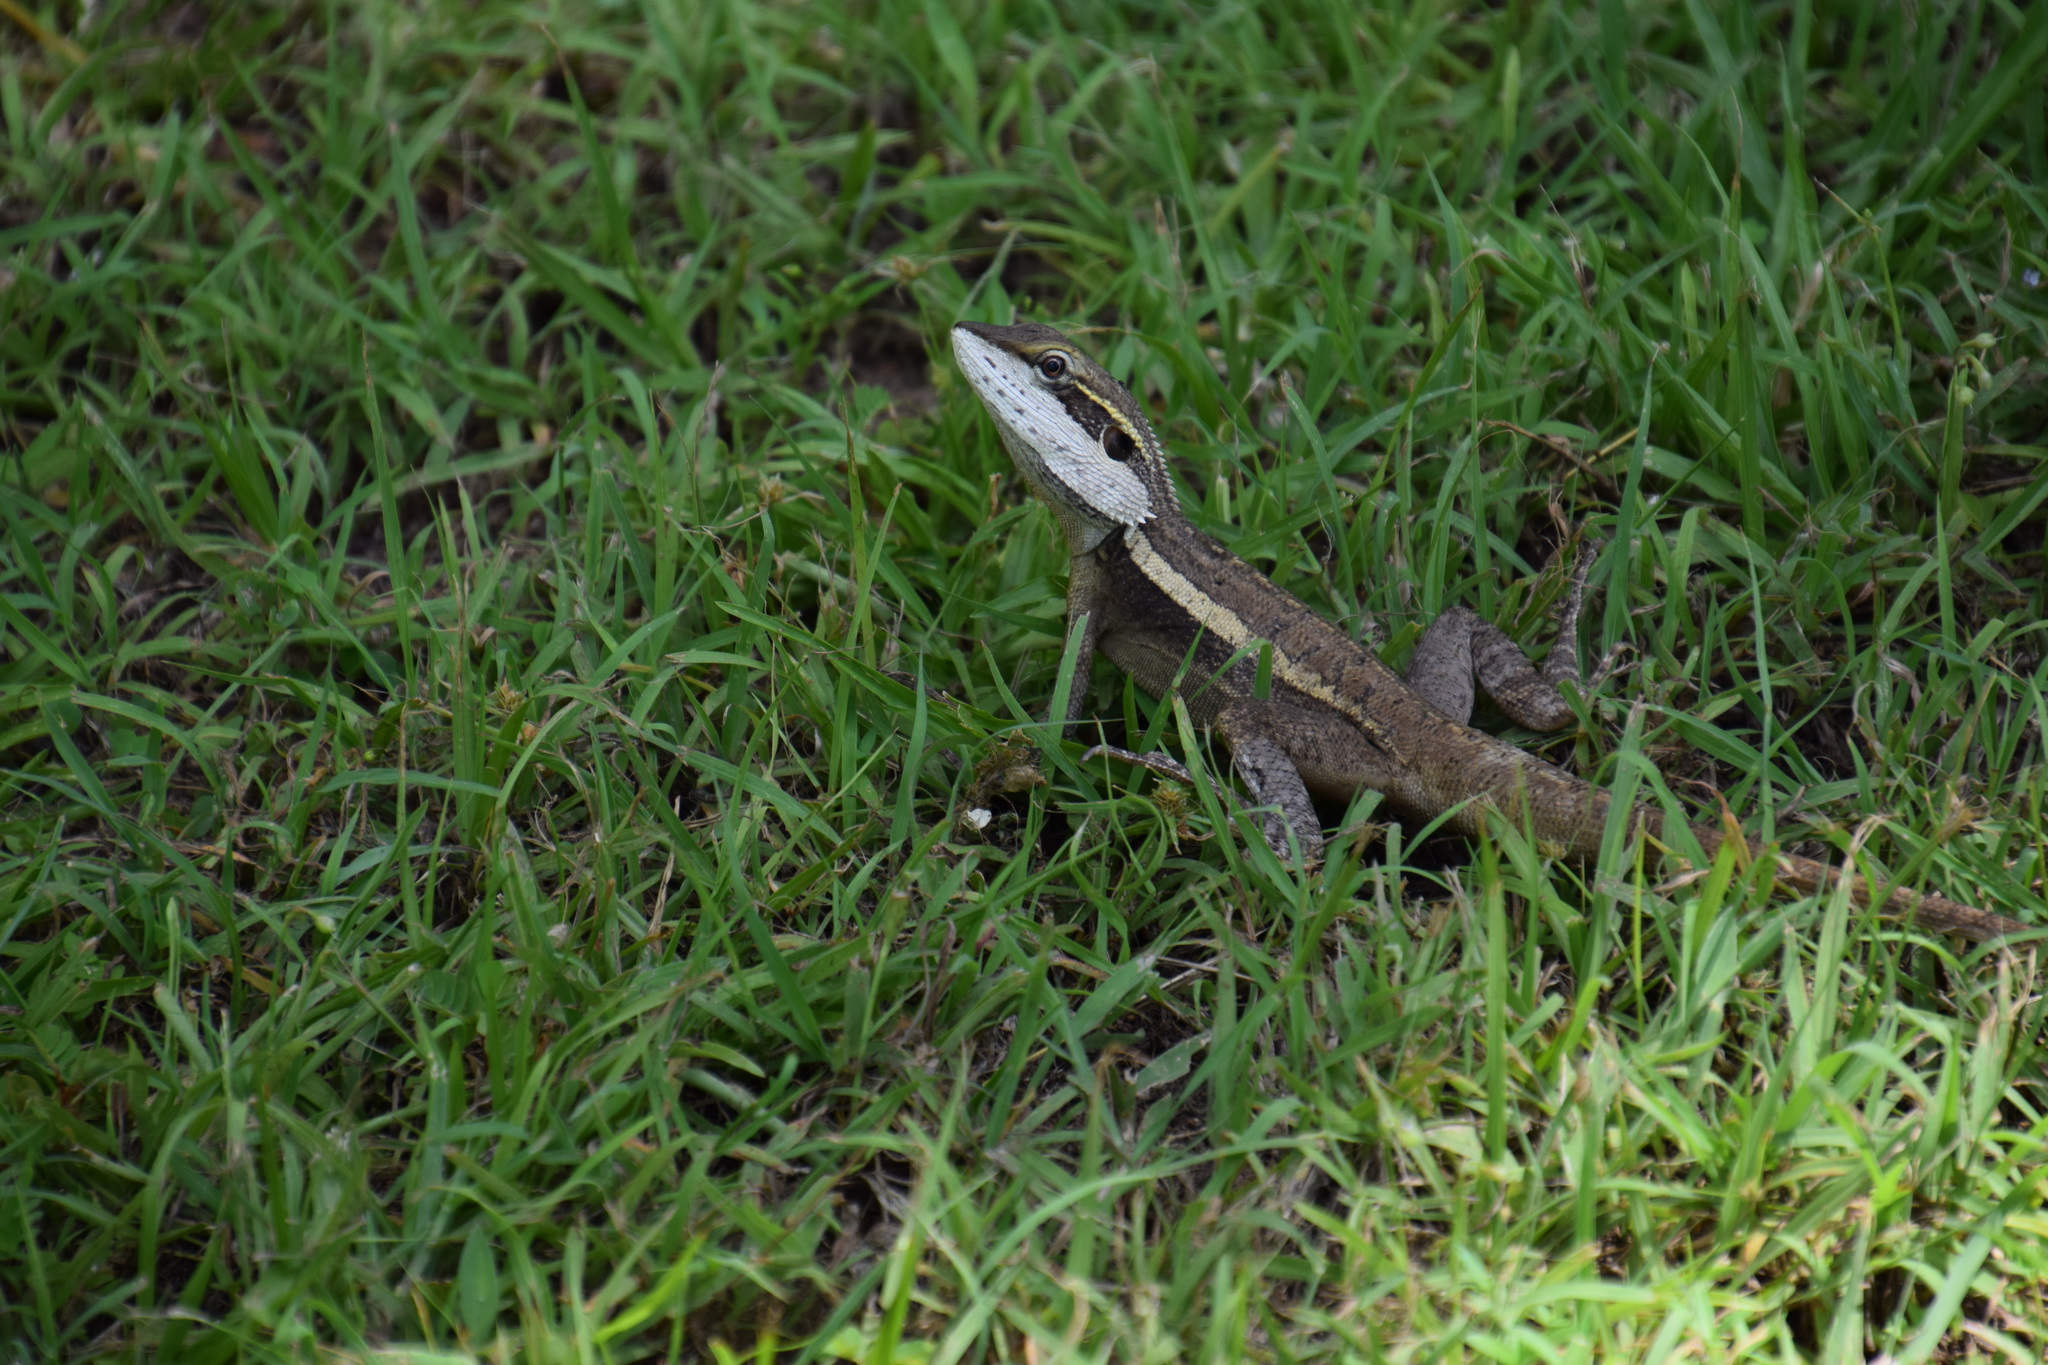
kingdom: Animalia
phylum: Chordata
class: Squamata
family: Agamidae
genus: Lophognathus
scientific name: Lophognathus gilberti
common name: Gilbert's dragon
